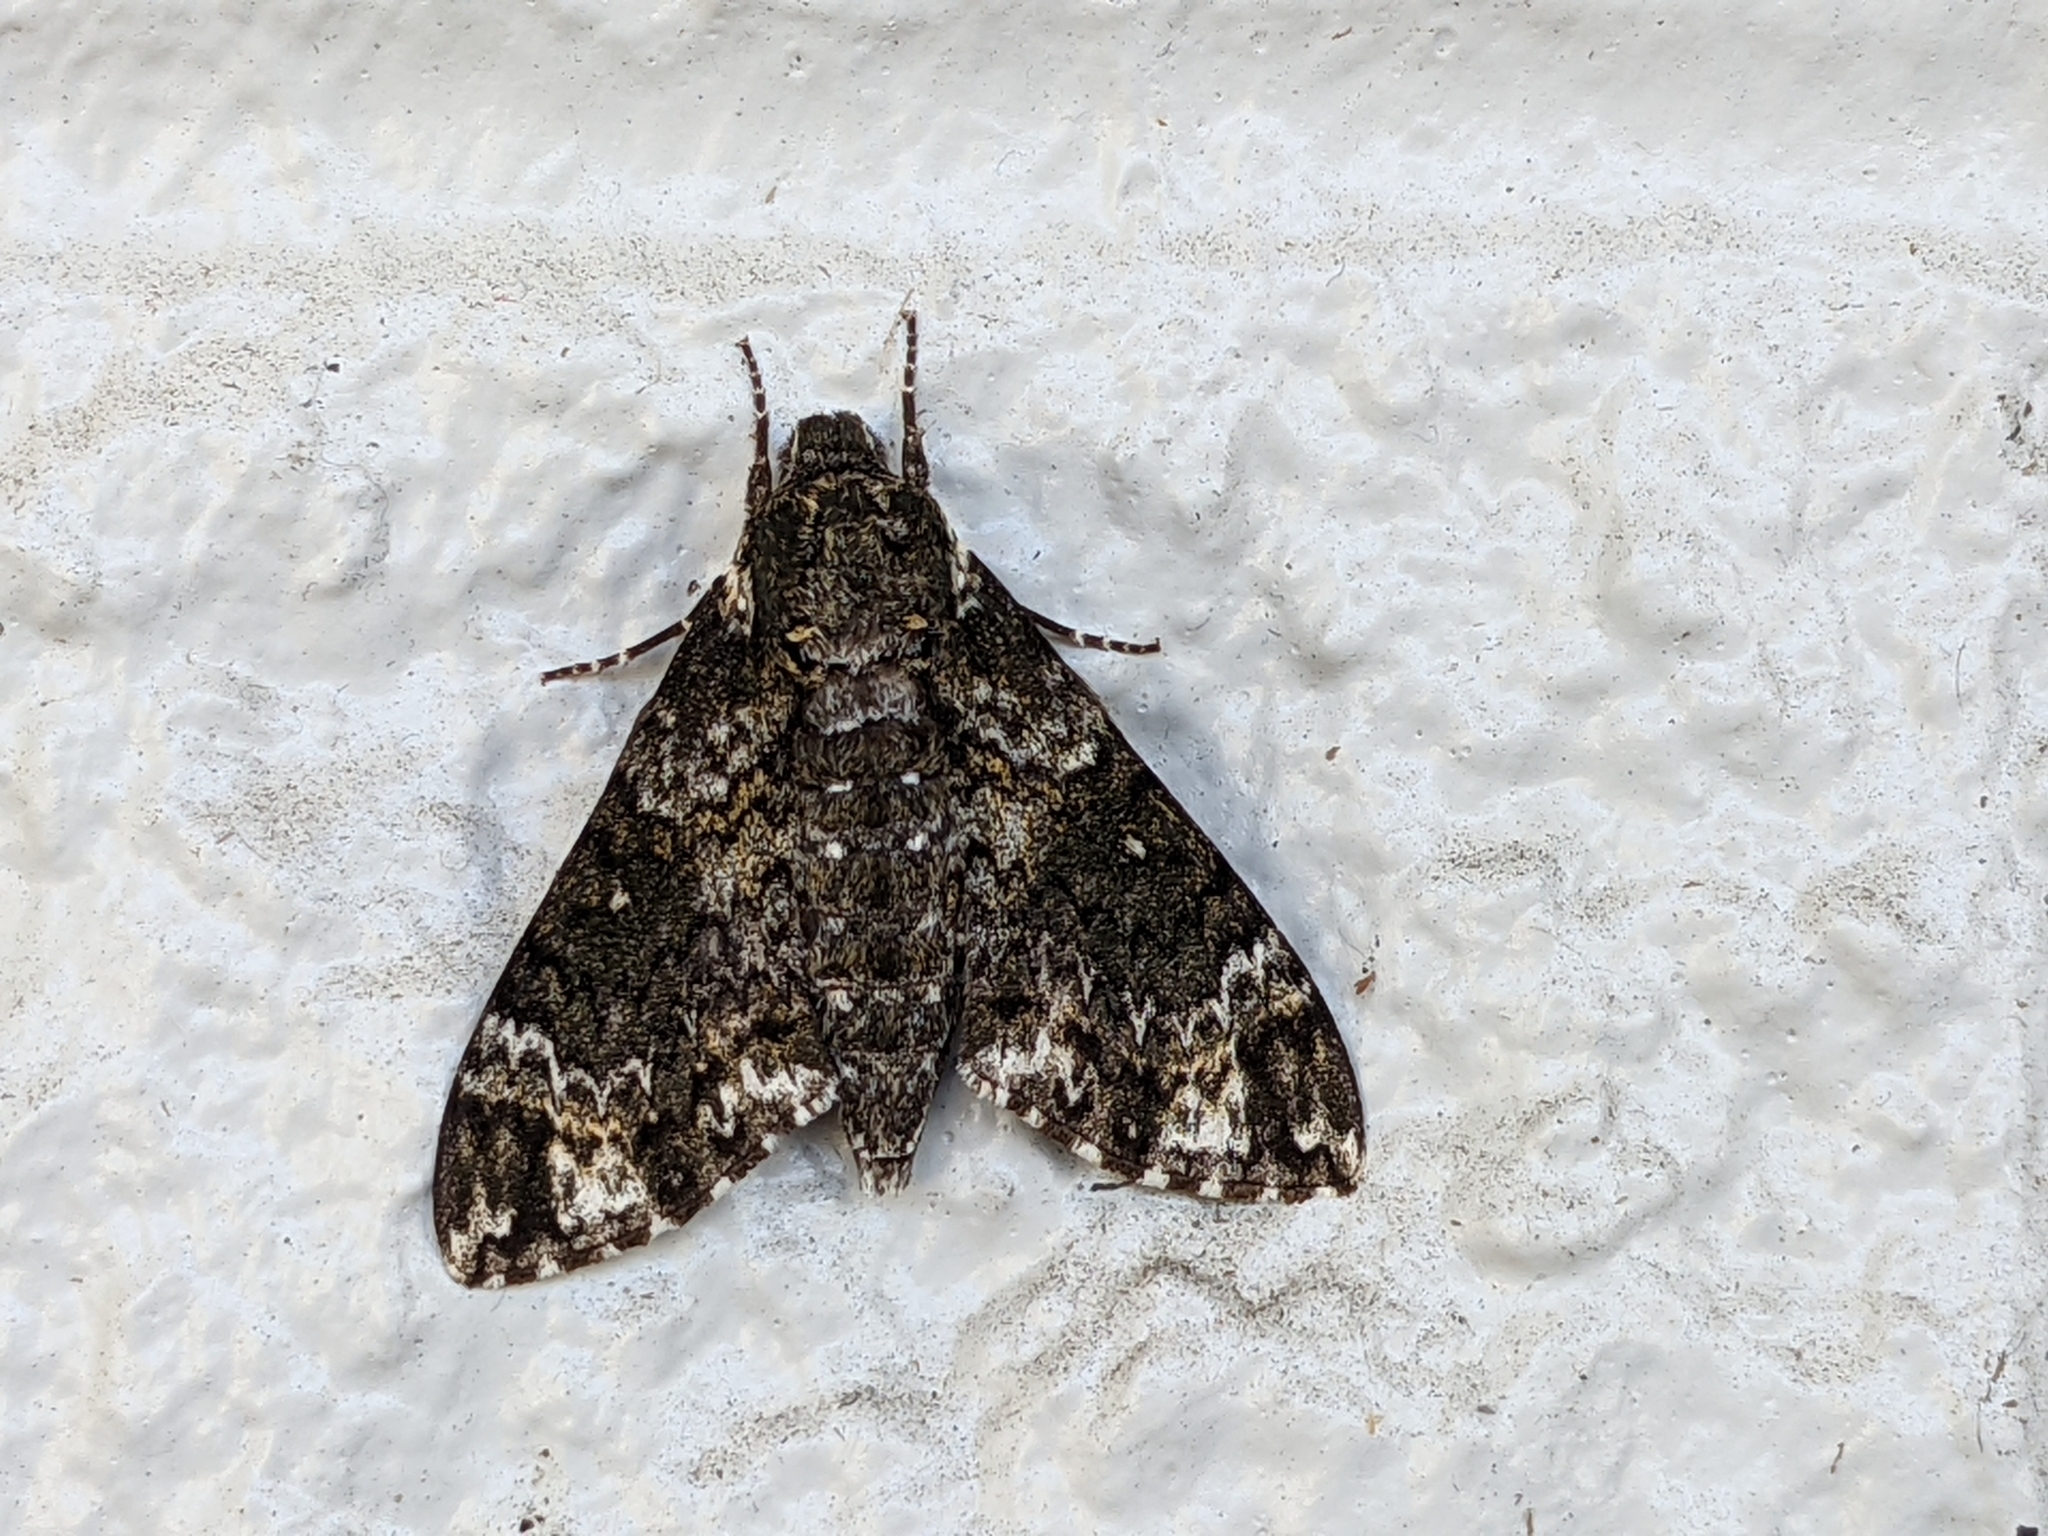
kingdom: Animalia
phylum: Arthropoda
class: Insecta
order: Lepidoptera
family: Sphingidae
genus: Dolba
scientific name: Dolba hyloeus
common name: Pawpaw sphinx
